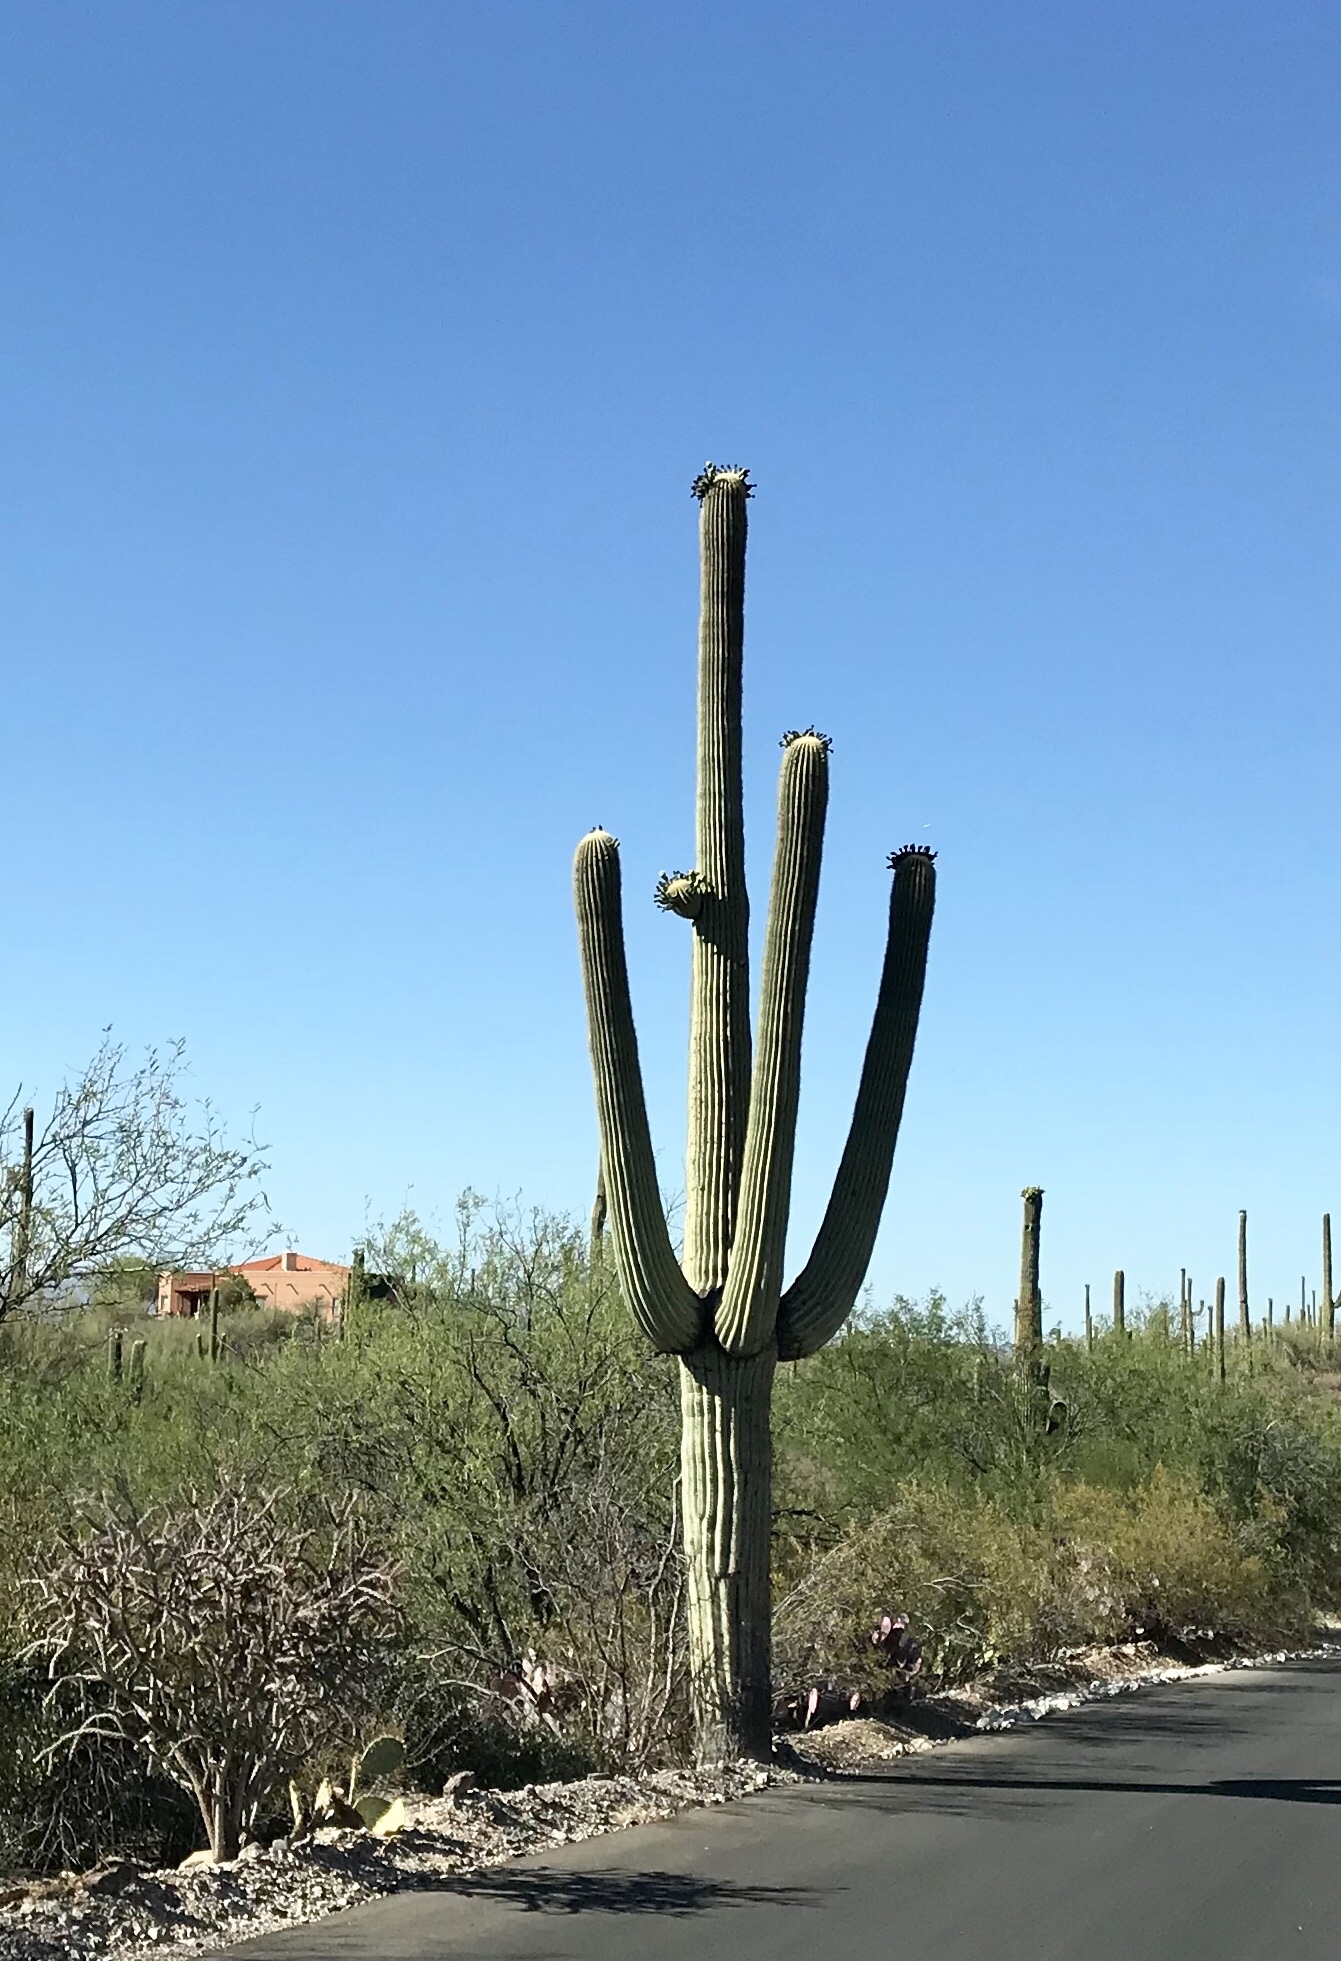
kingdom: Plantae
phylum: Tracheophyta
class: Magnoliopsida
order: Caryophyllales
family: Cactaceae
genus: Carnegiea
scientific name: Carnegiea gigantea
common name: Saguaro
